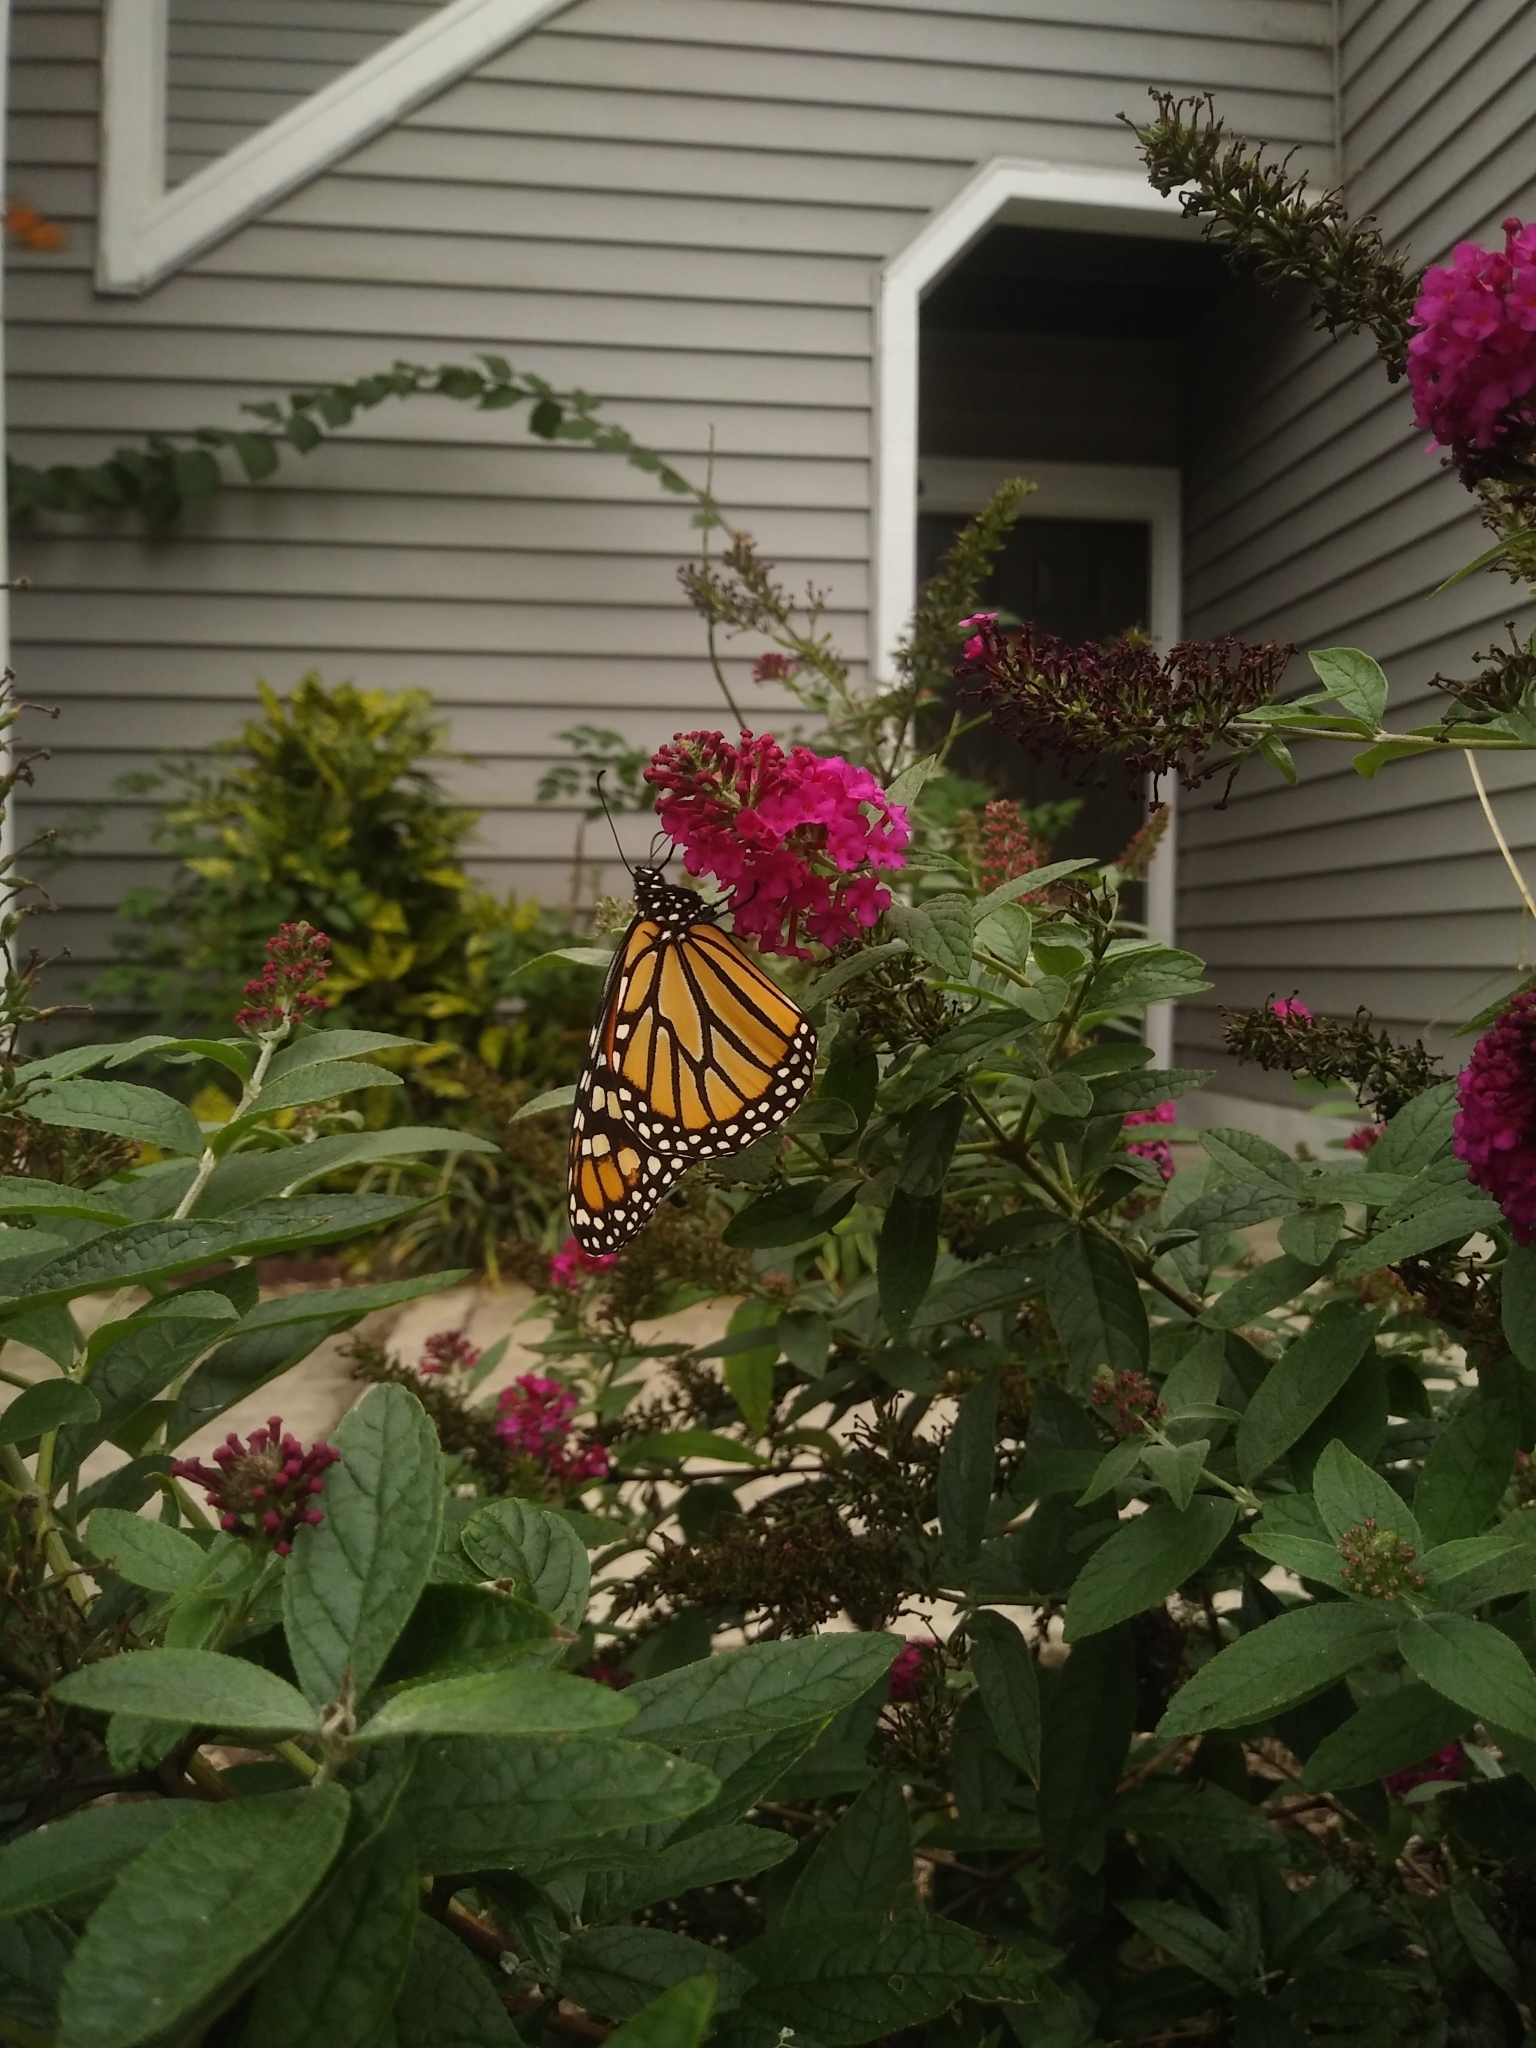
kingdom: Animalia
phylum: Arthropoda
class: Insecta
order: Lepidoptera
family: Nymphalidae
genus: Danaus
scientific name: Danaus plexippus
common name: Monarch
